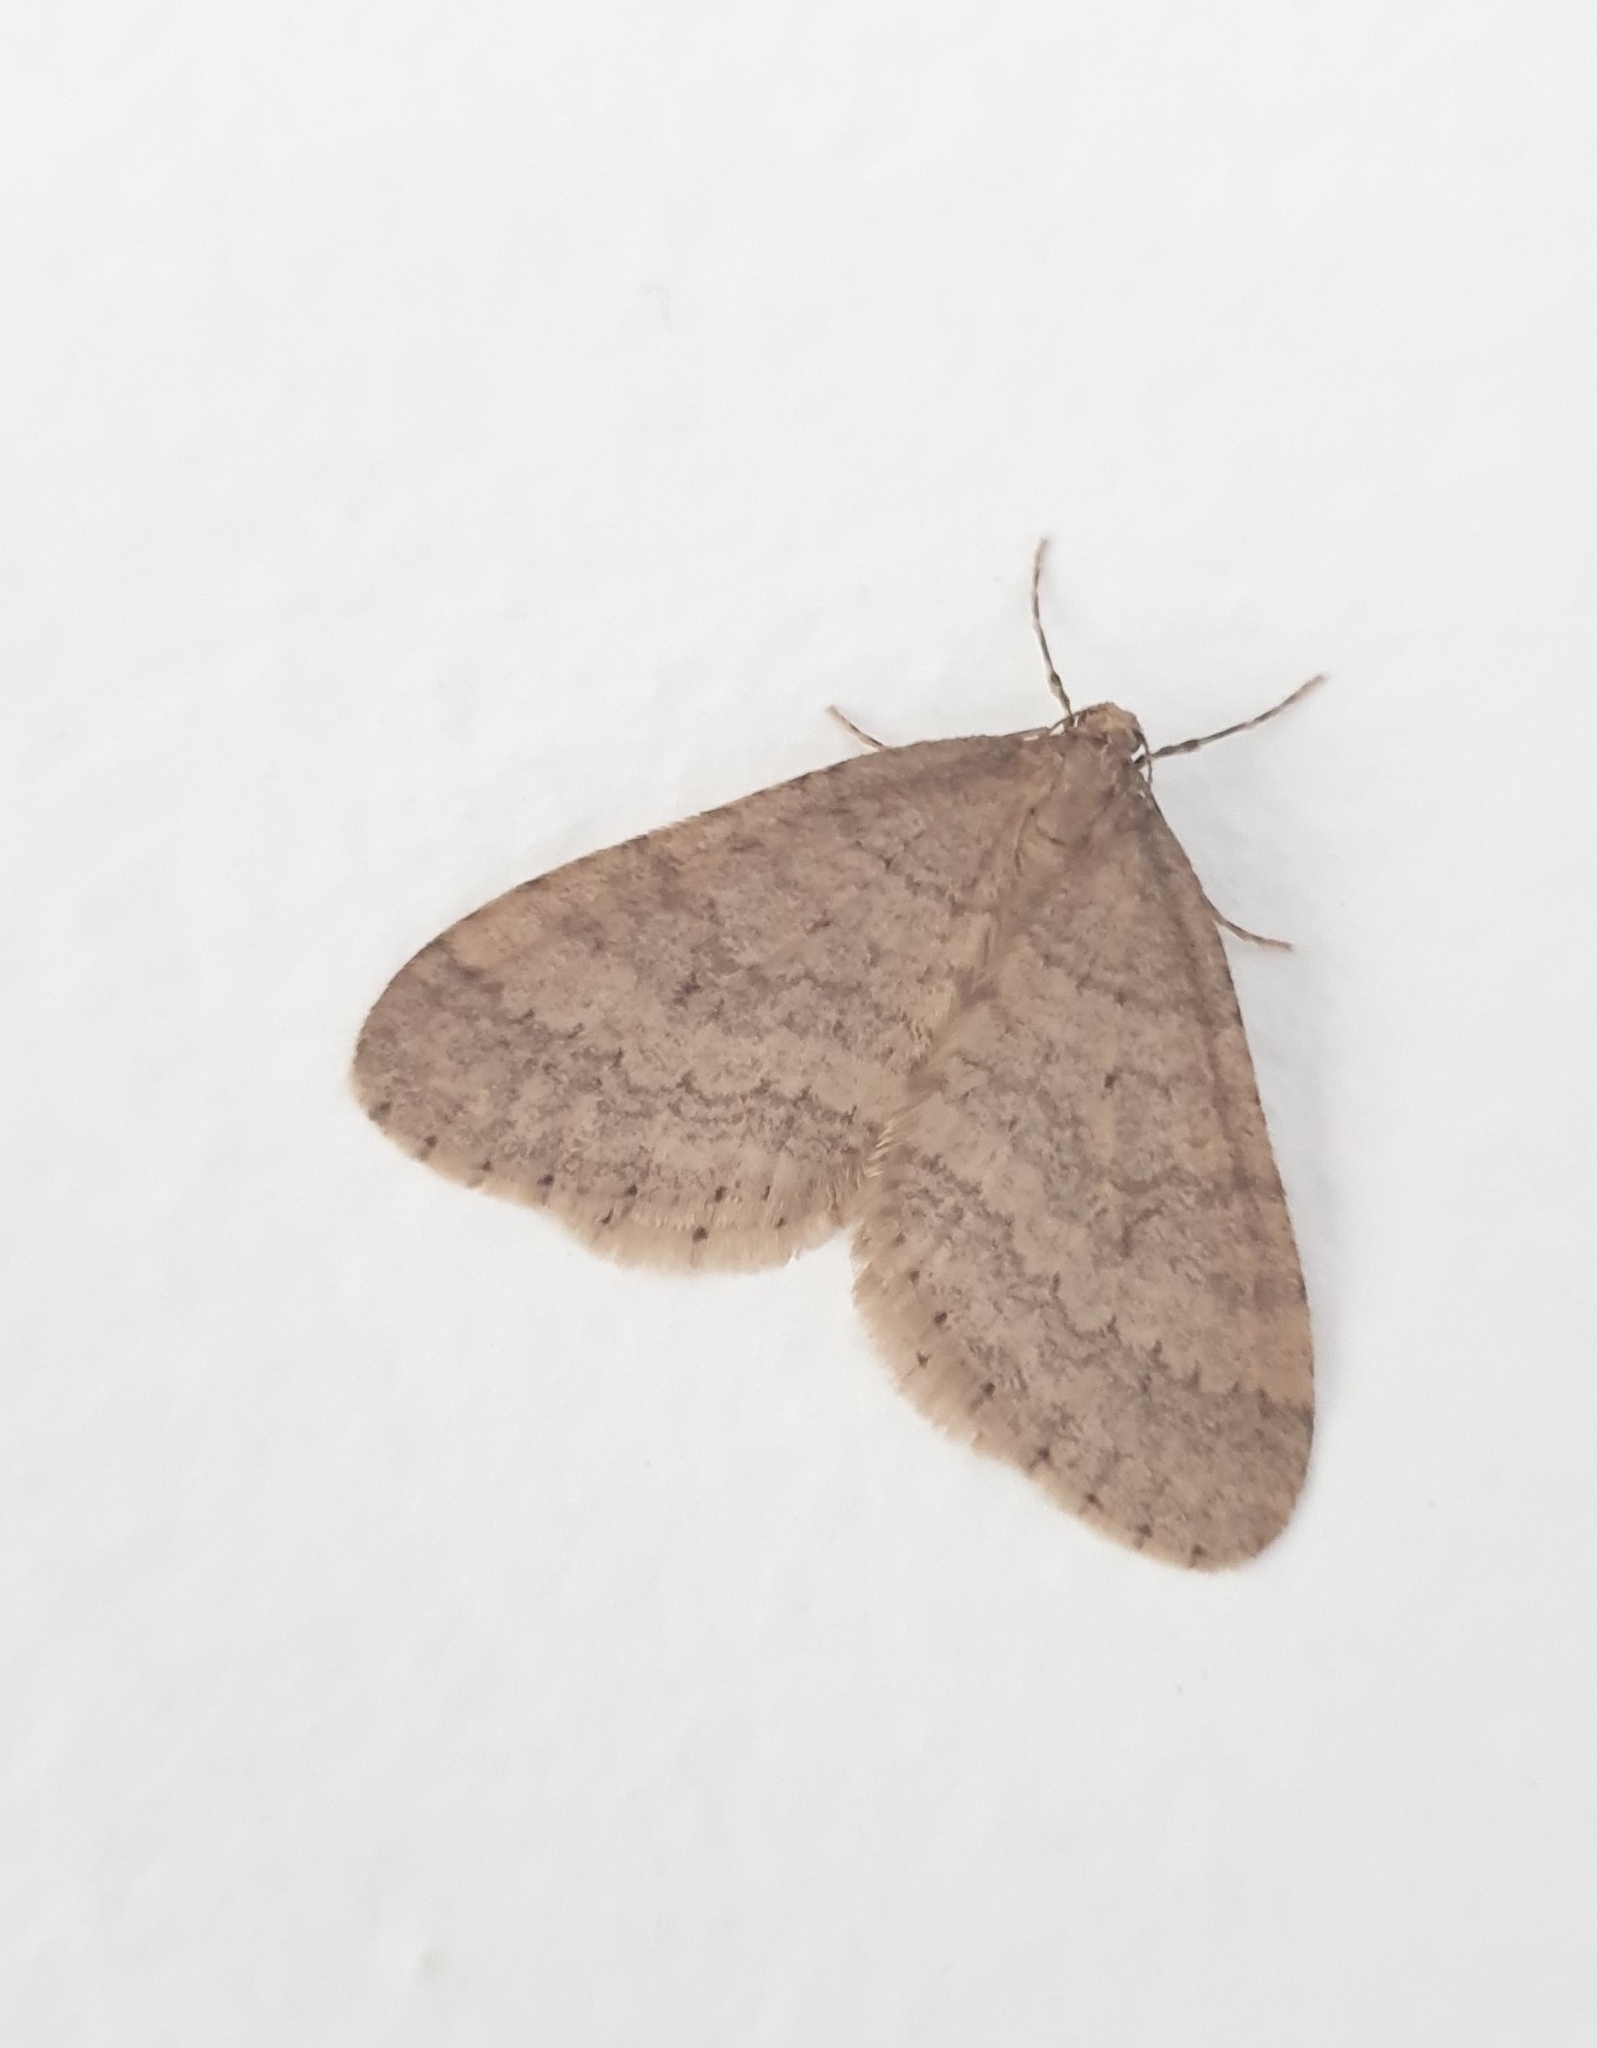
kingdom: Animalia
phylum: Arthropoda
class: Insecta
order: Lepidoptera
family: Geometridae
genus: Operophtera
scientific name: Operophtera brumata
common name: Winter moth
